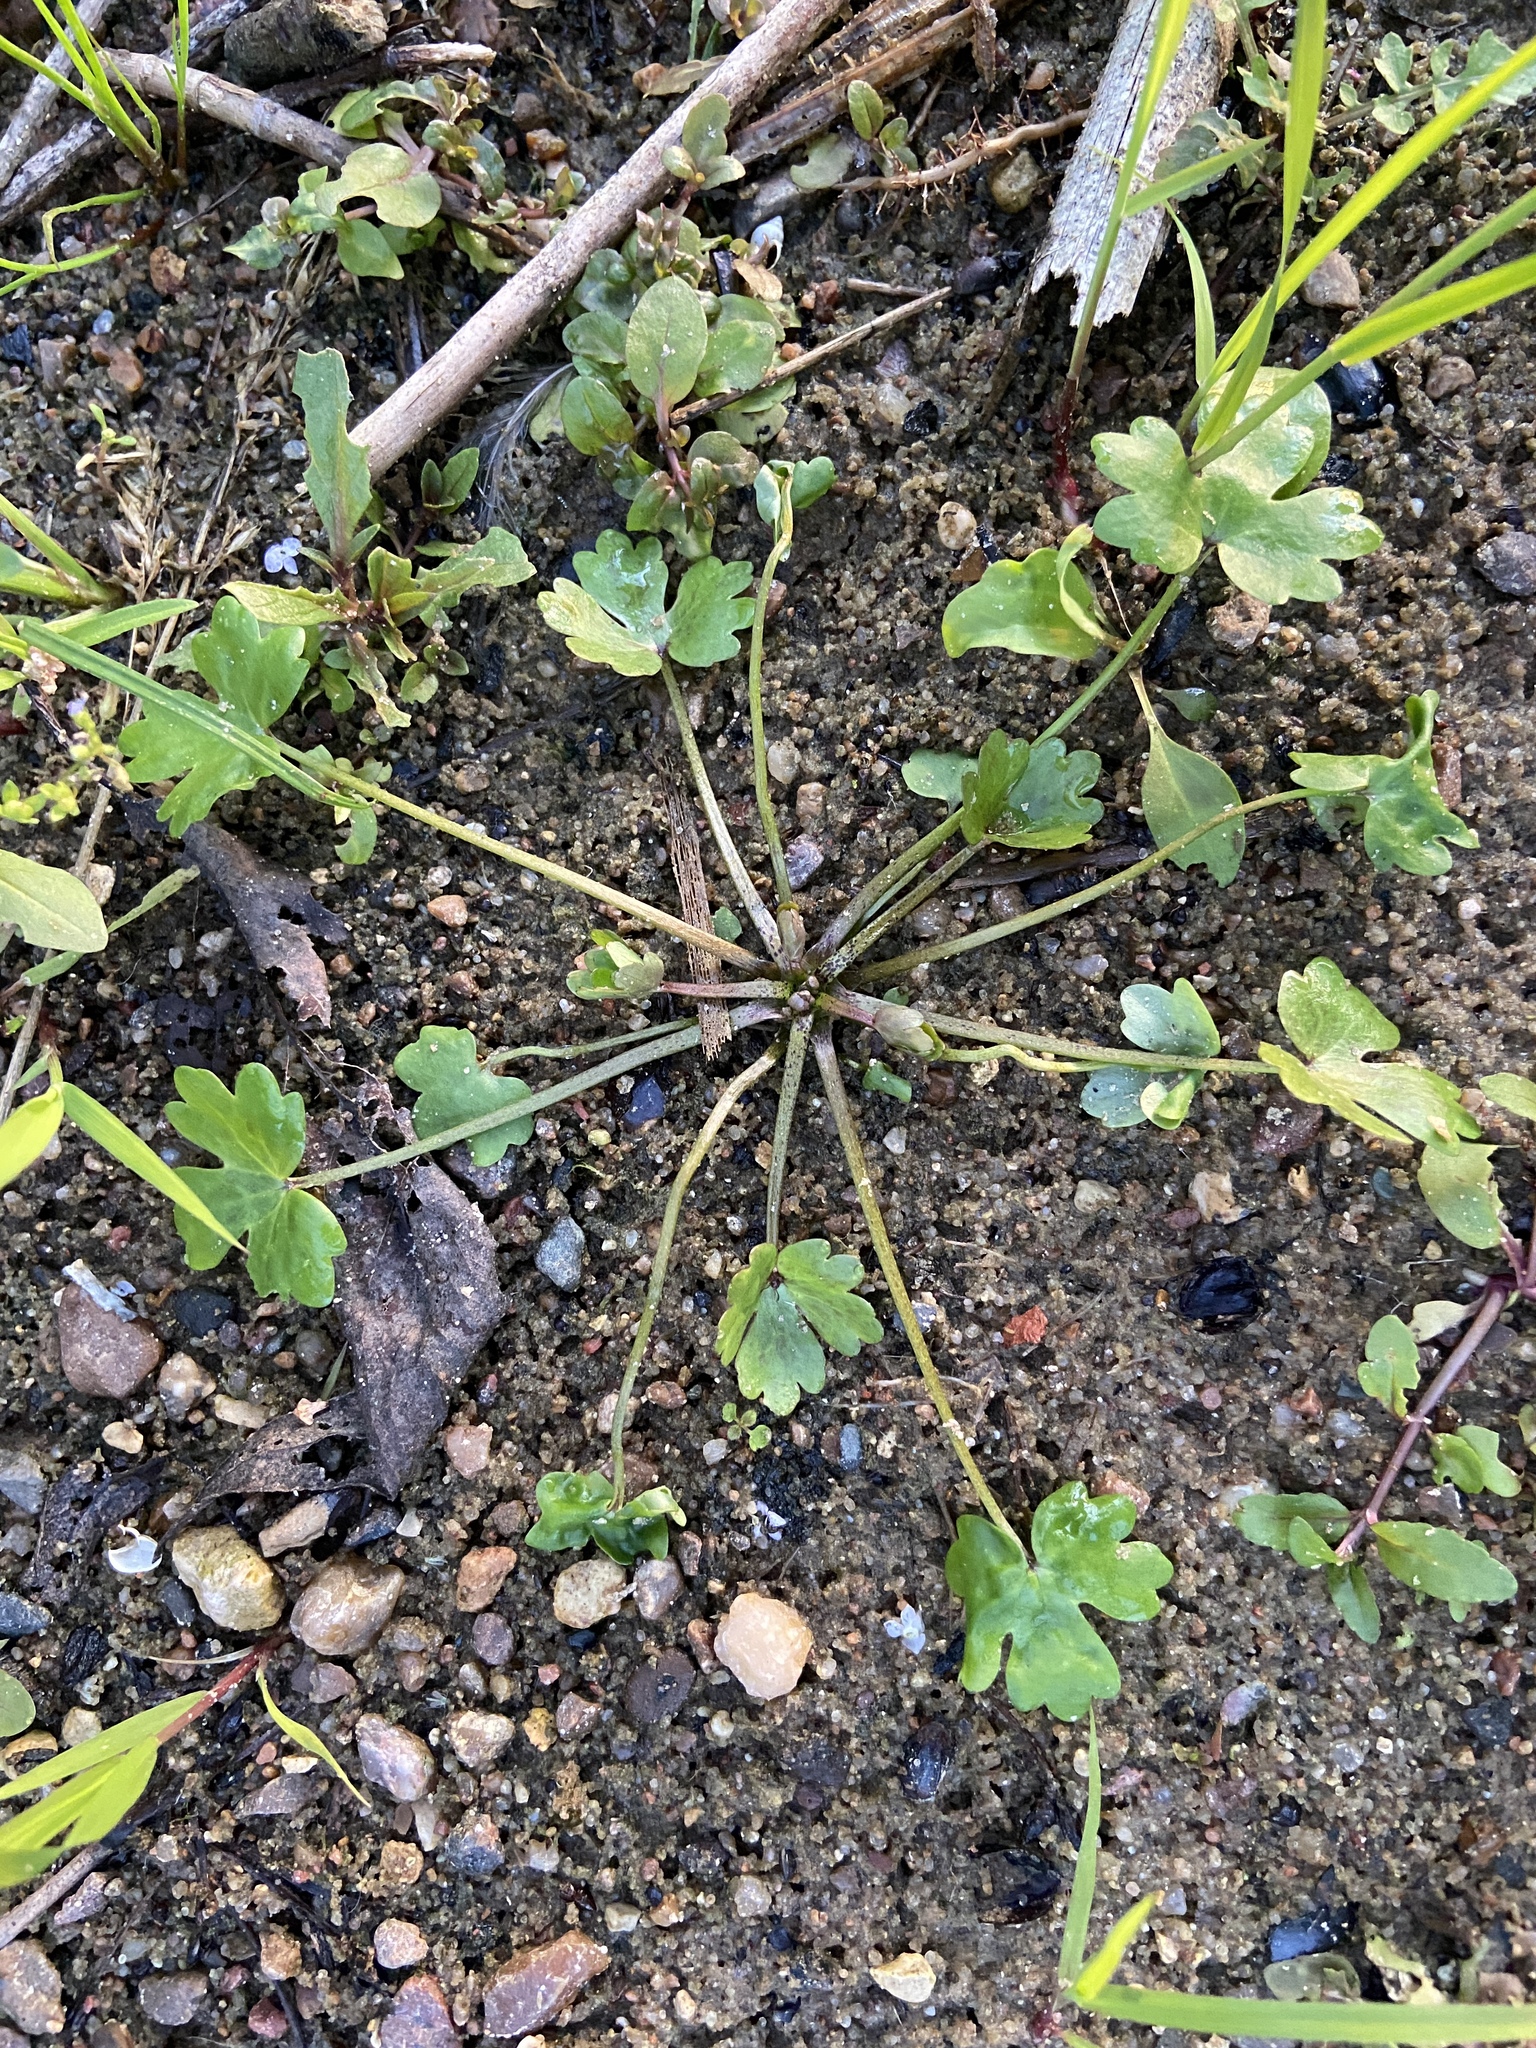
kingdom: Plantae
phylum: Tracheophyta
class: Magnoliopsida
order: Ranunculales
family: Ranunculaceae
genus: Ranunculus
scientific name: Ranunculus sceleratus
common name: Celery-leaved buttercup
